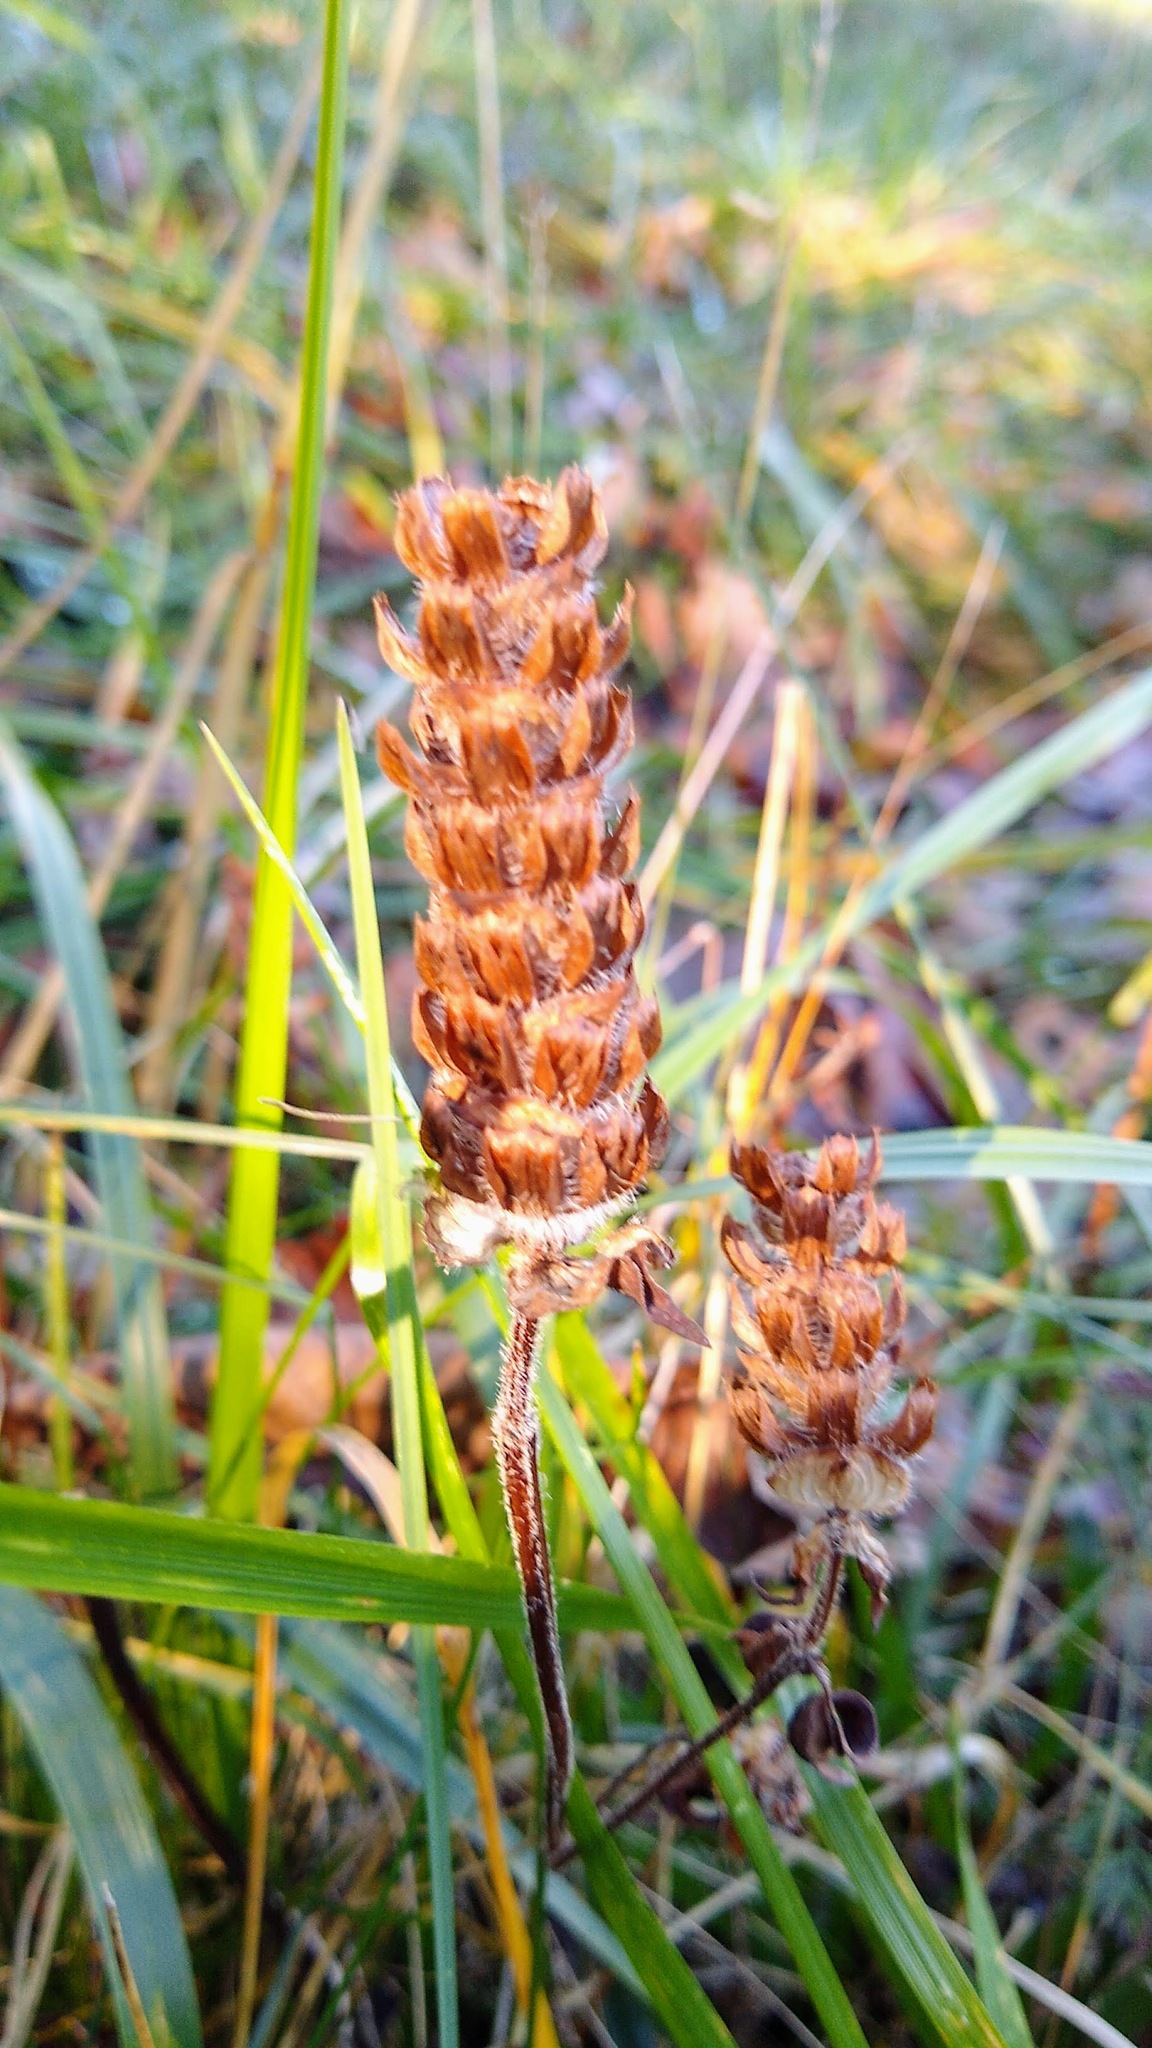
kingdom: Plantae
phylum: Tracheophyta
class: Magnoliopsida
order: Lamiales
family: Lamiaceae
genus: Prunella
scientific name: Prunella vulgaris
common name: Heal-all
